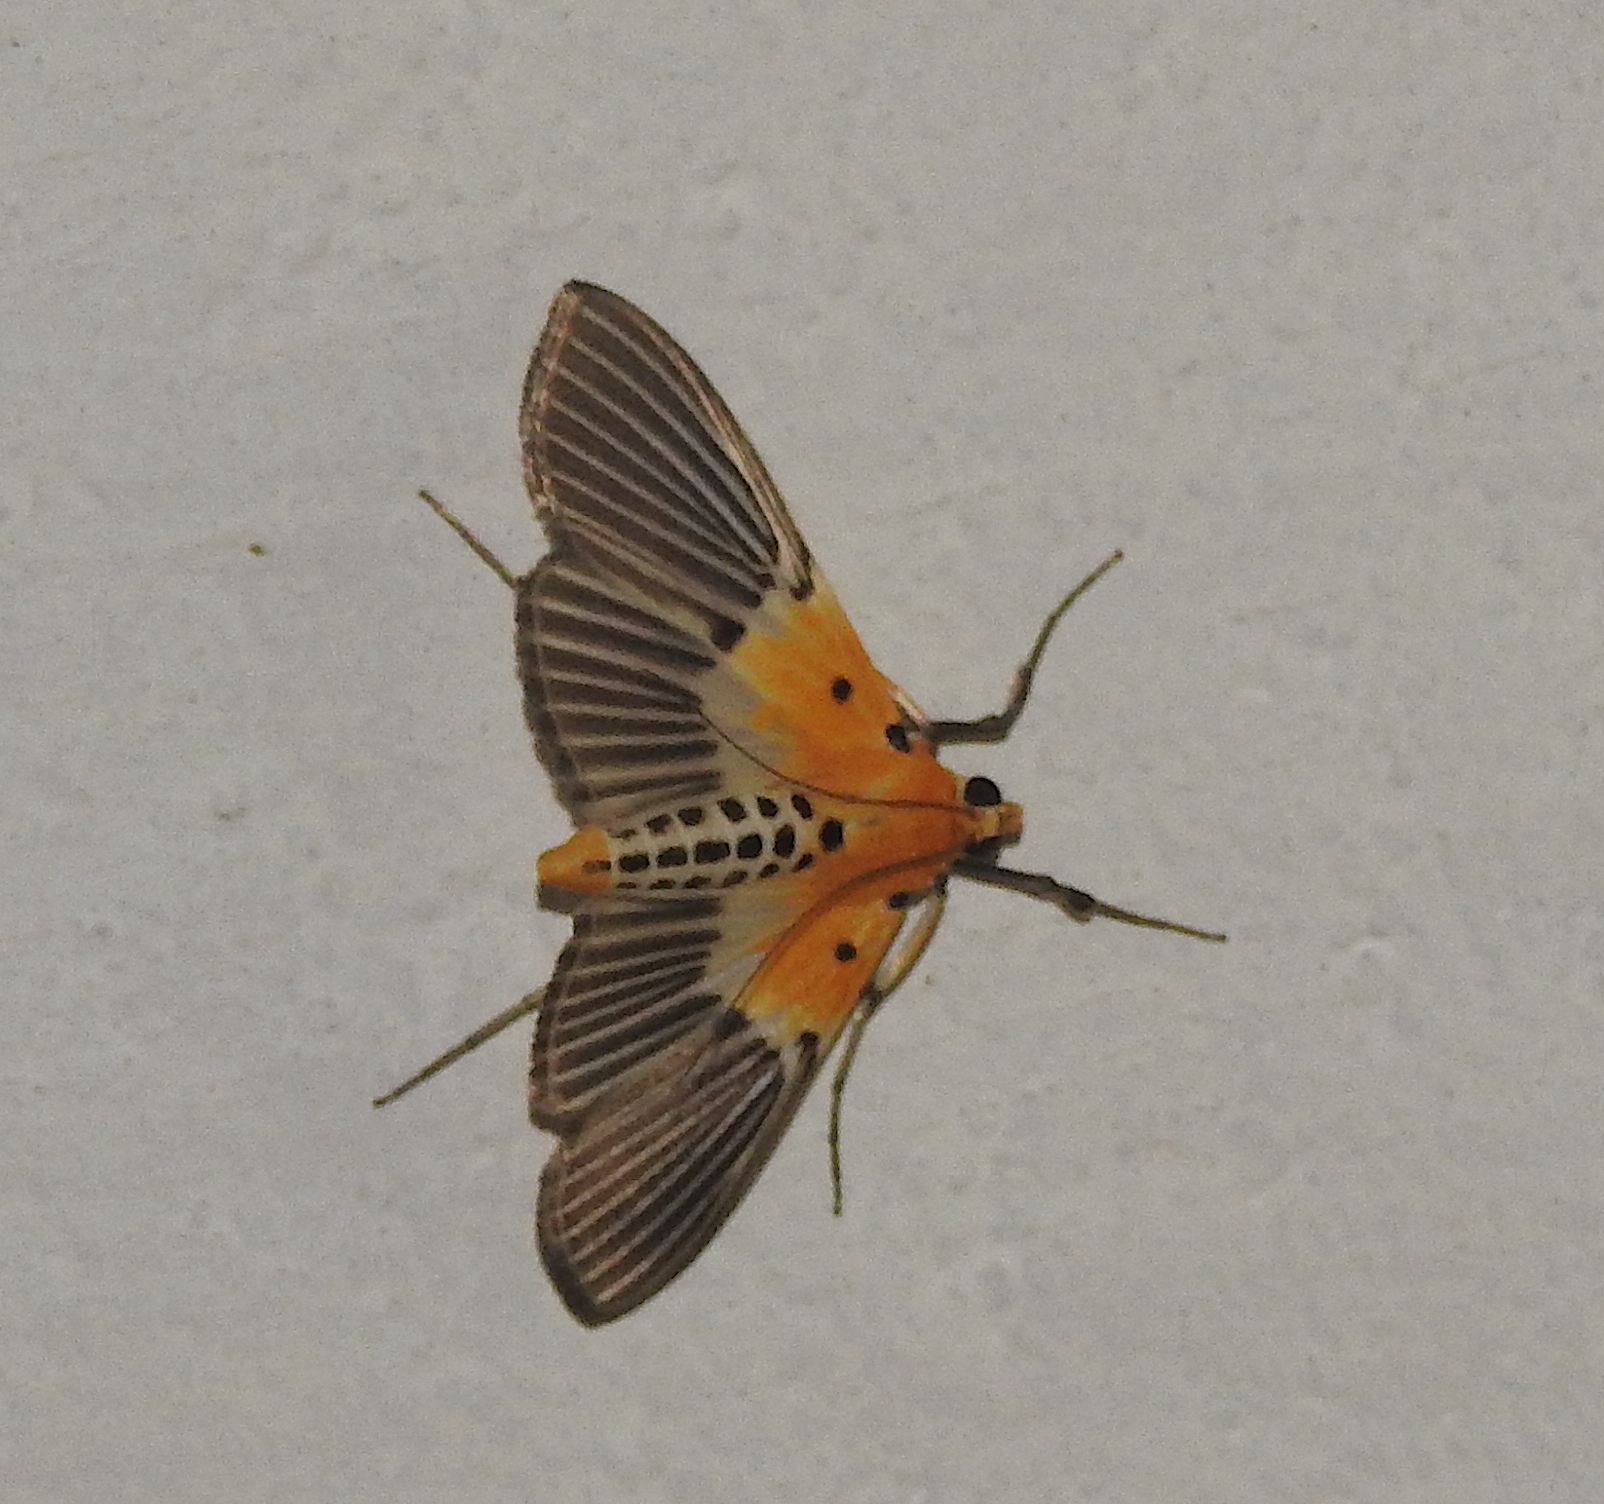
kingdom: Animalia
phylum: Arthropoda
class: Insecta
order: Lepidoptera
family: Crambidae
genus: Nevrina
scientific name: Nevrina procopia
